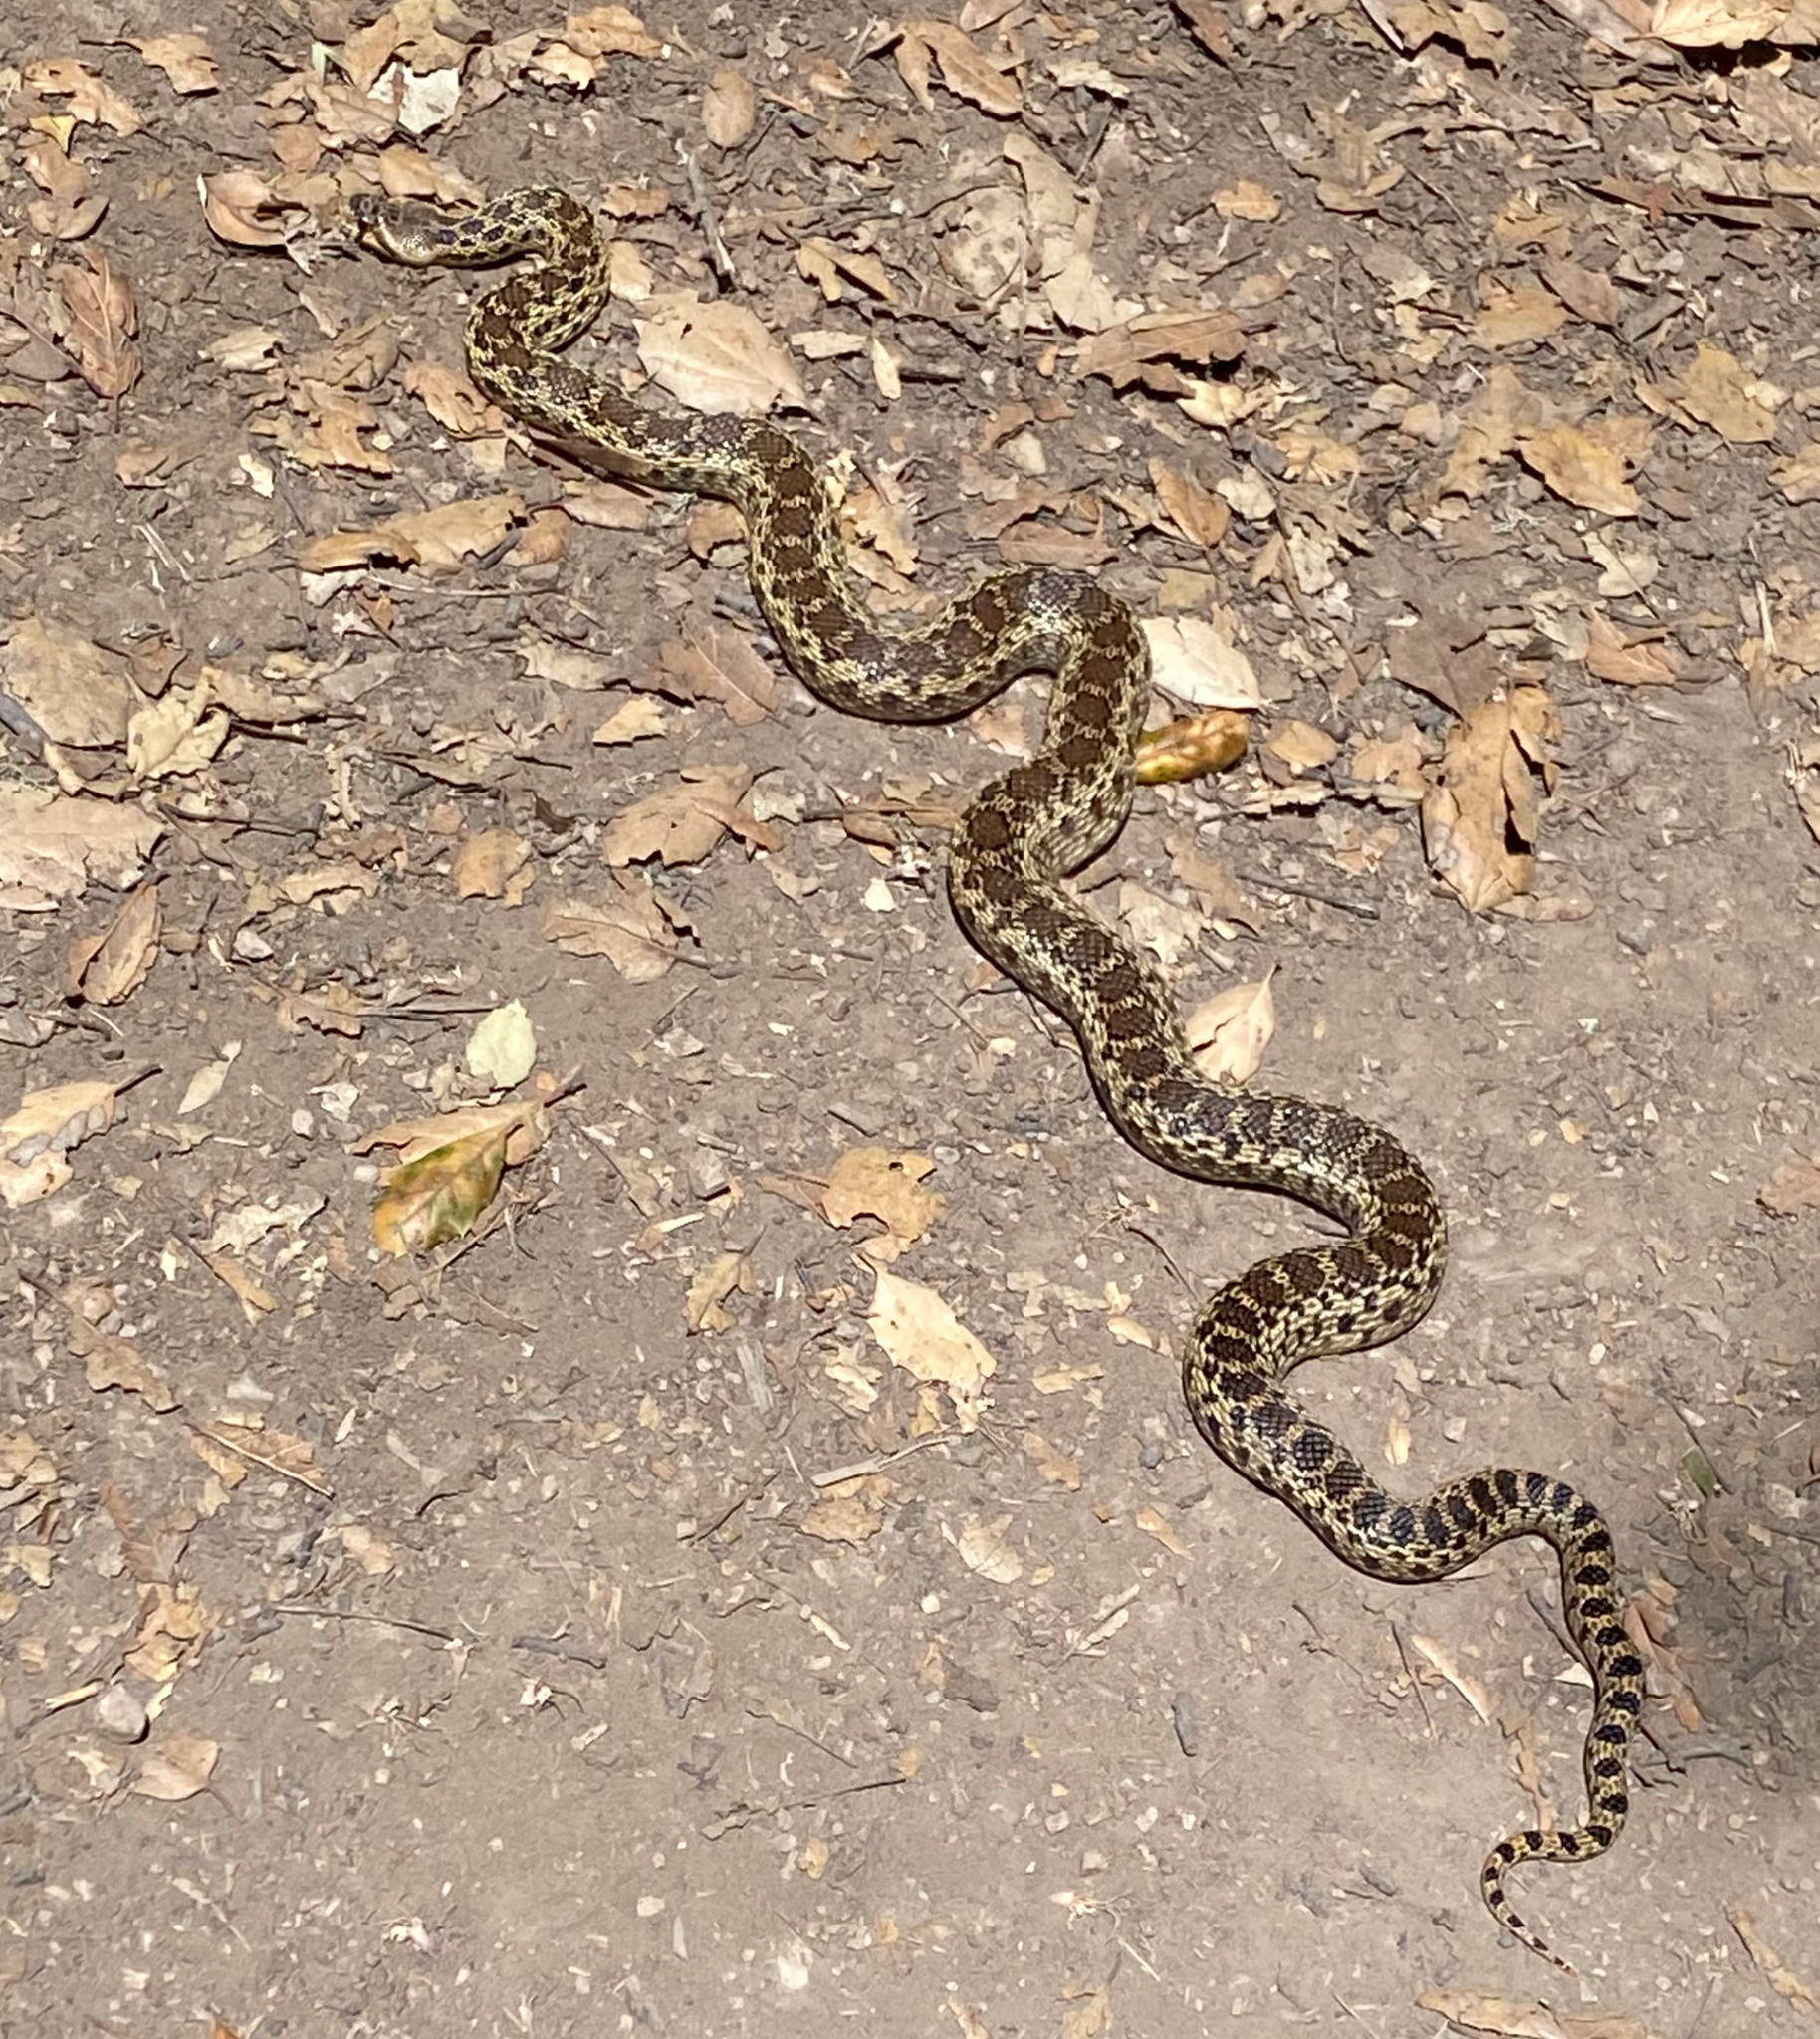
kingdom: Animalia
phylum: Chordata
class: Squamata
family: Colubridae
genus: Pituophis
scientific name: Pituophis catenifer
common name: Gopher snake
